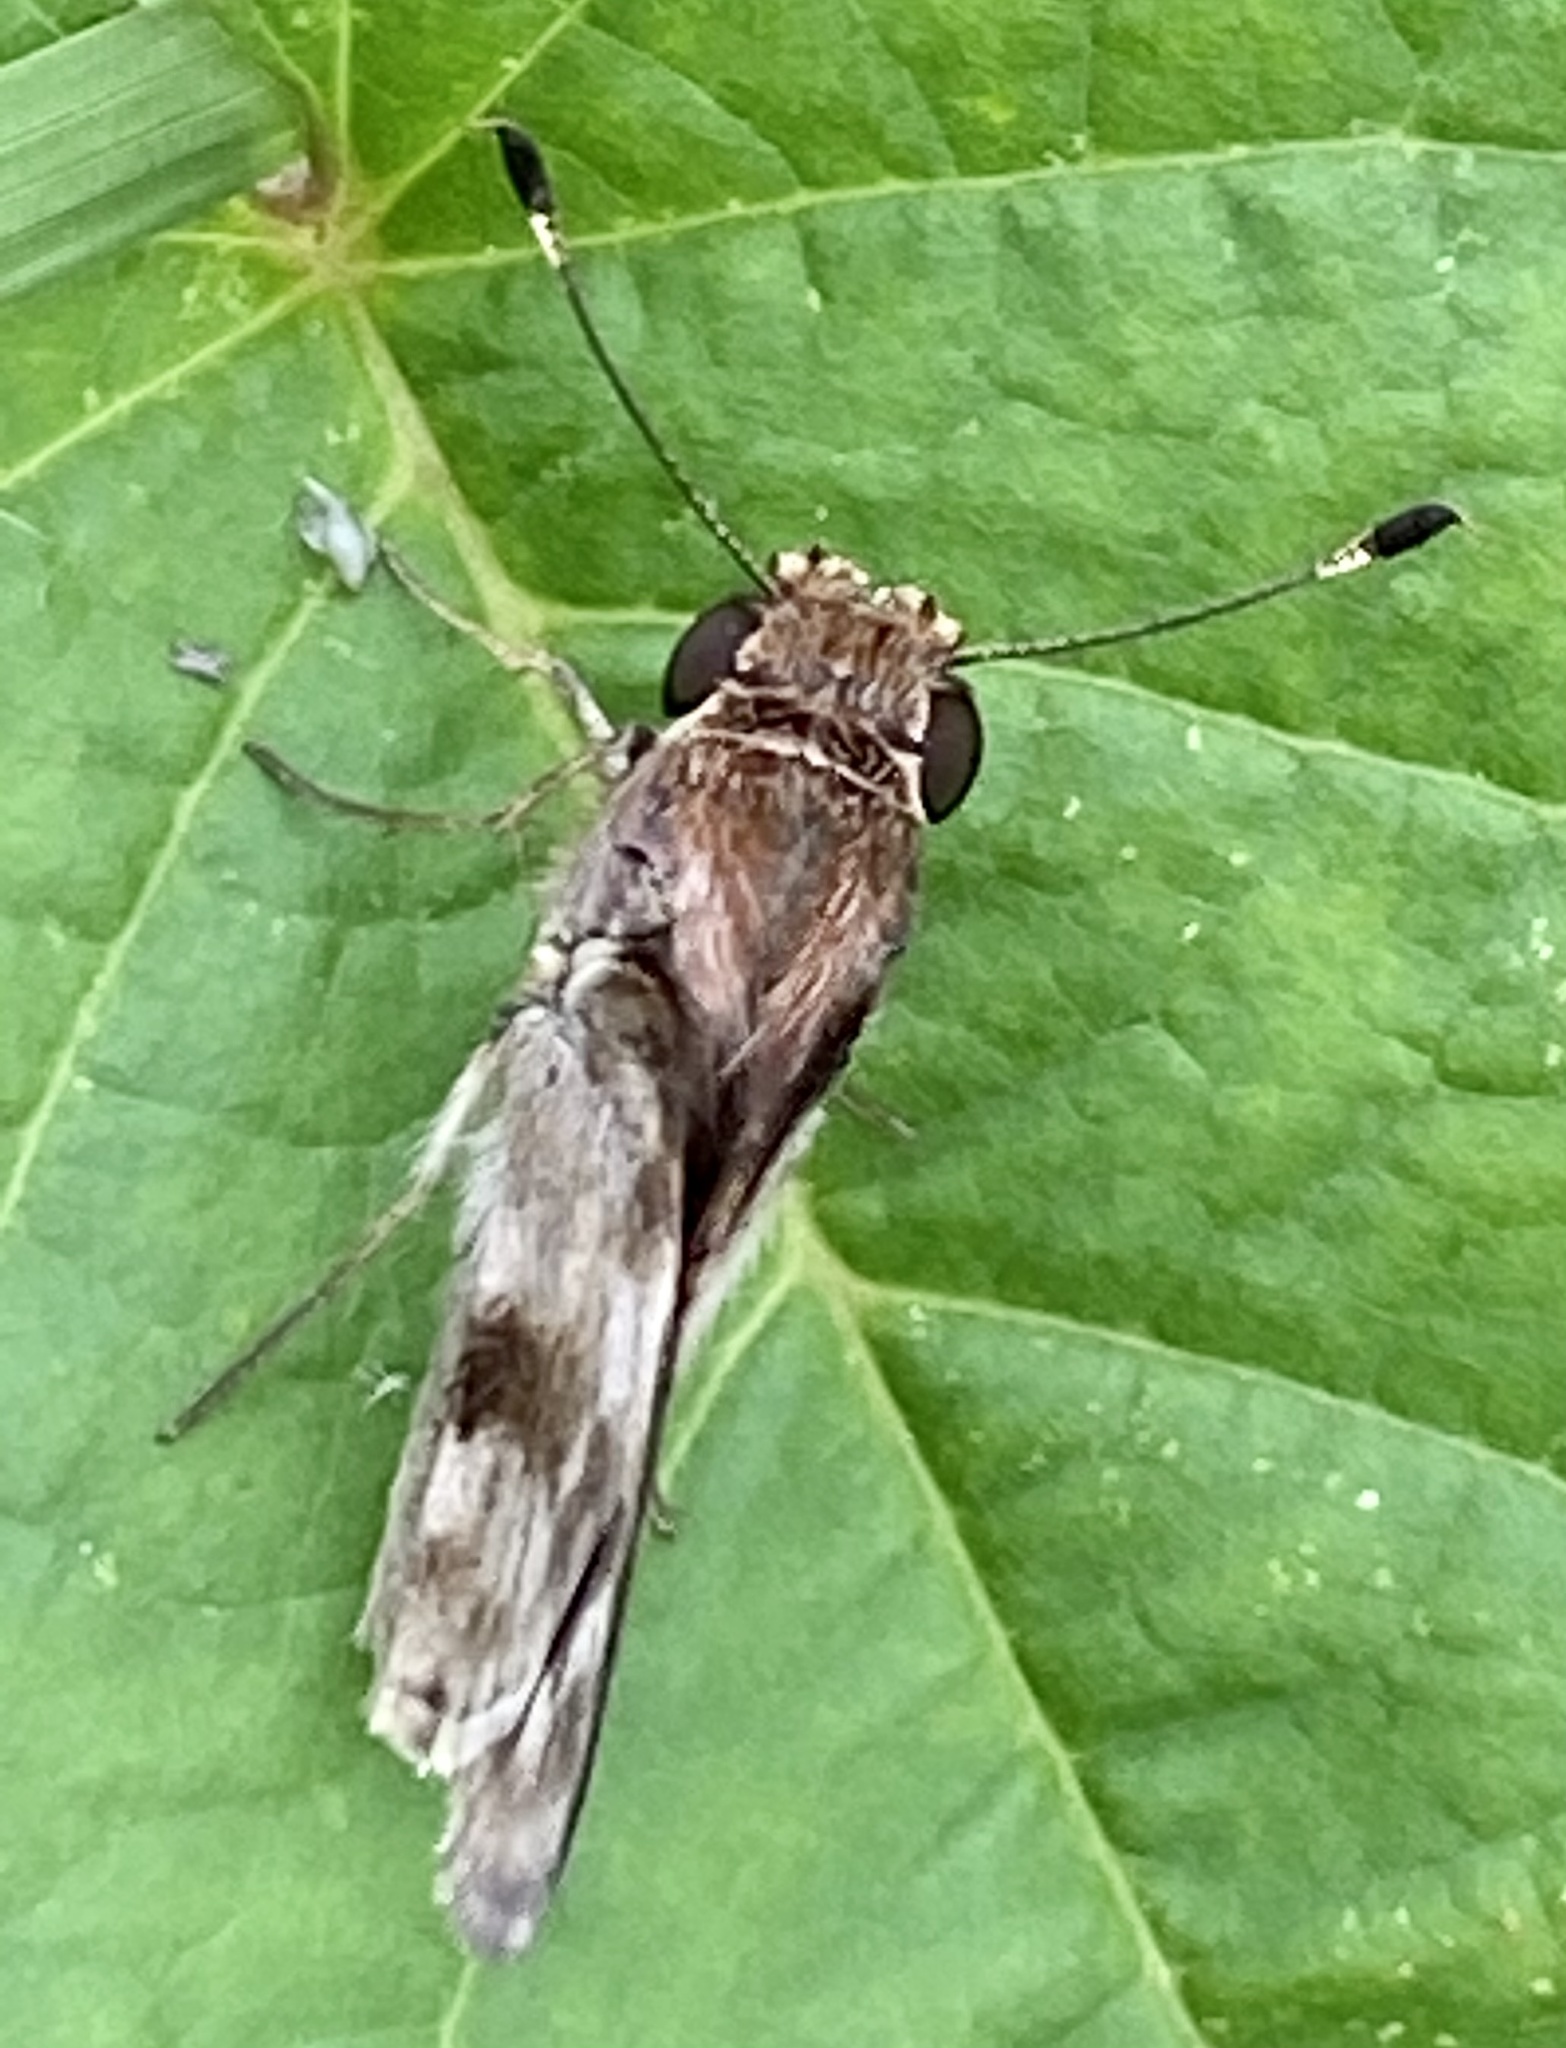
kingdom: Animalia
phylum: Arthropoda
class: Insecta
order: Lepidoptera
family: Hesperiidae
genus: Pompeius
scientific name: Pompeius pompeius
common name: Pompeius skipper
